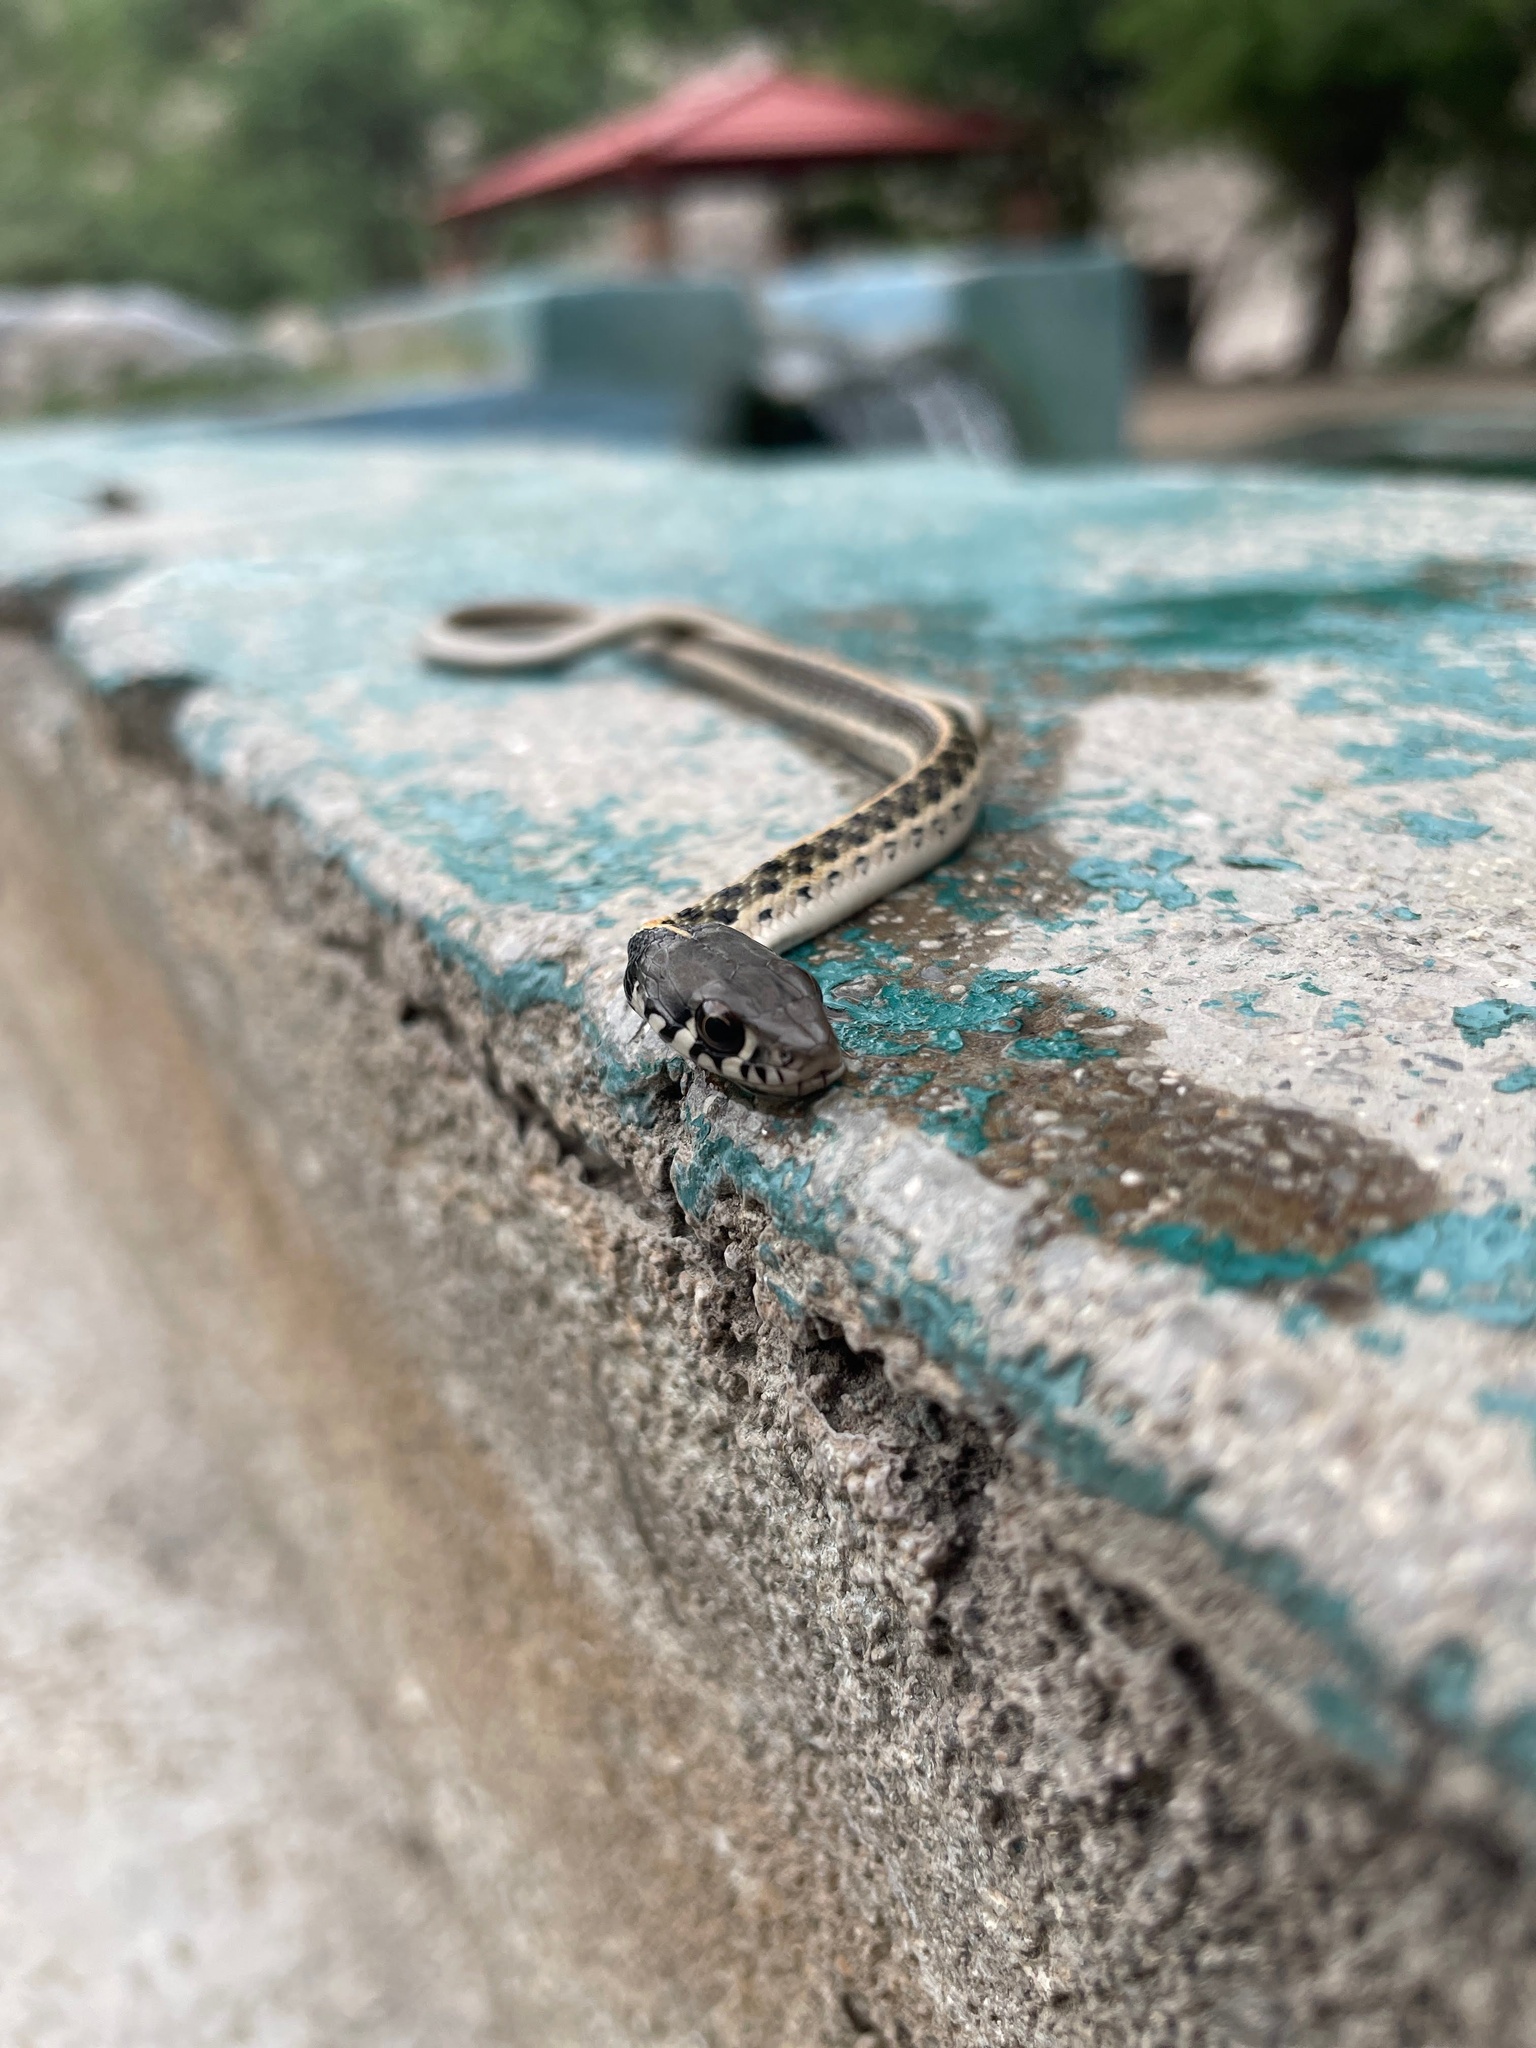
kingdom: Animalia
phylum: Chordata
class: Squamata
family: Colubridae
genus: Thamnophis
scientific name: Thamnophis cyrtopsis
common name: Black-necked gartersnake
